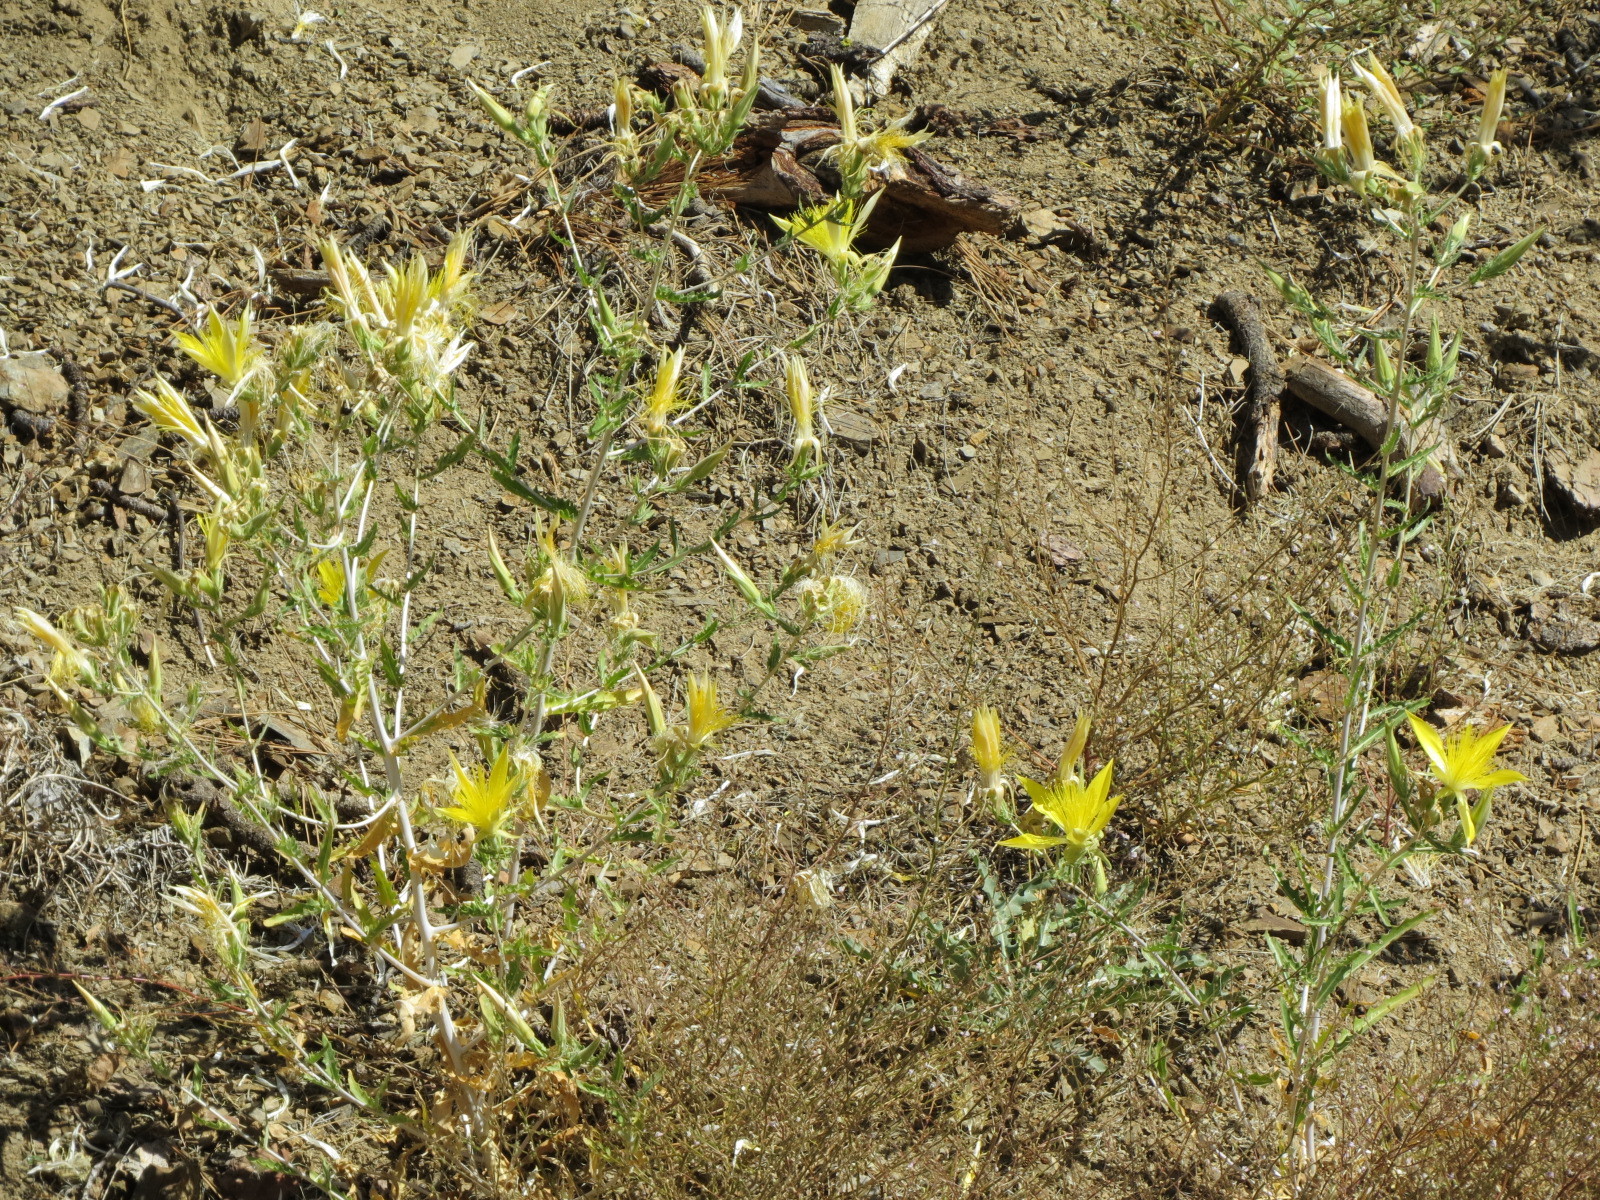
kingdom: Plantae
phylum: Tracheophyta
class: Magnoliopsida
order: Cornales
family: Loasaceae
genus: Mentzelia
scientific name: Mentzelia laevicaulis
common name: Smooth-stem blazingstar
